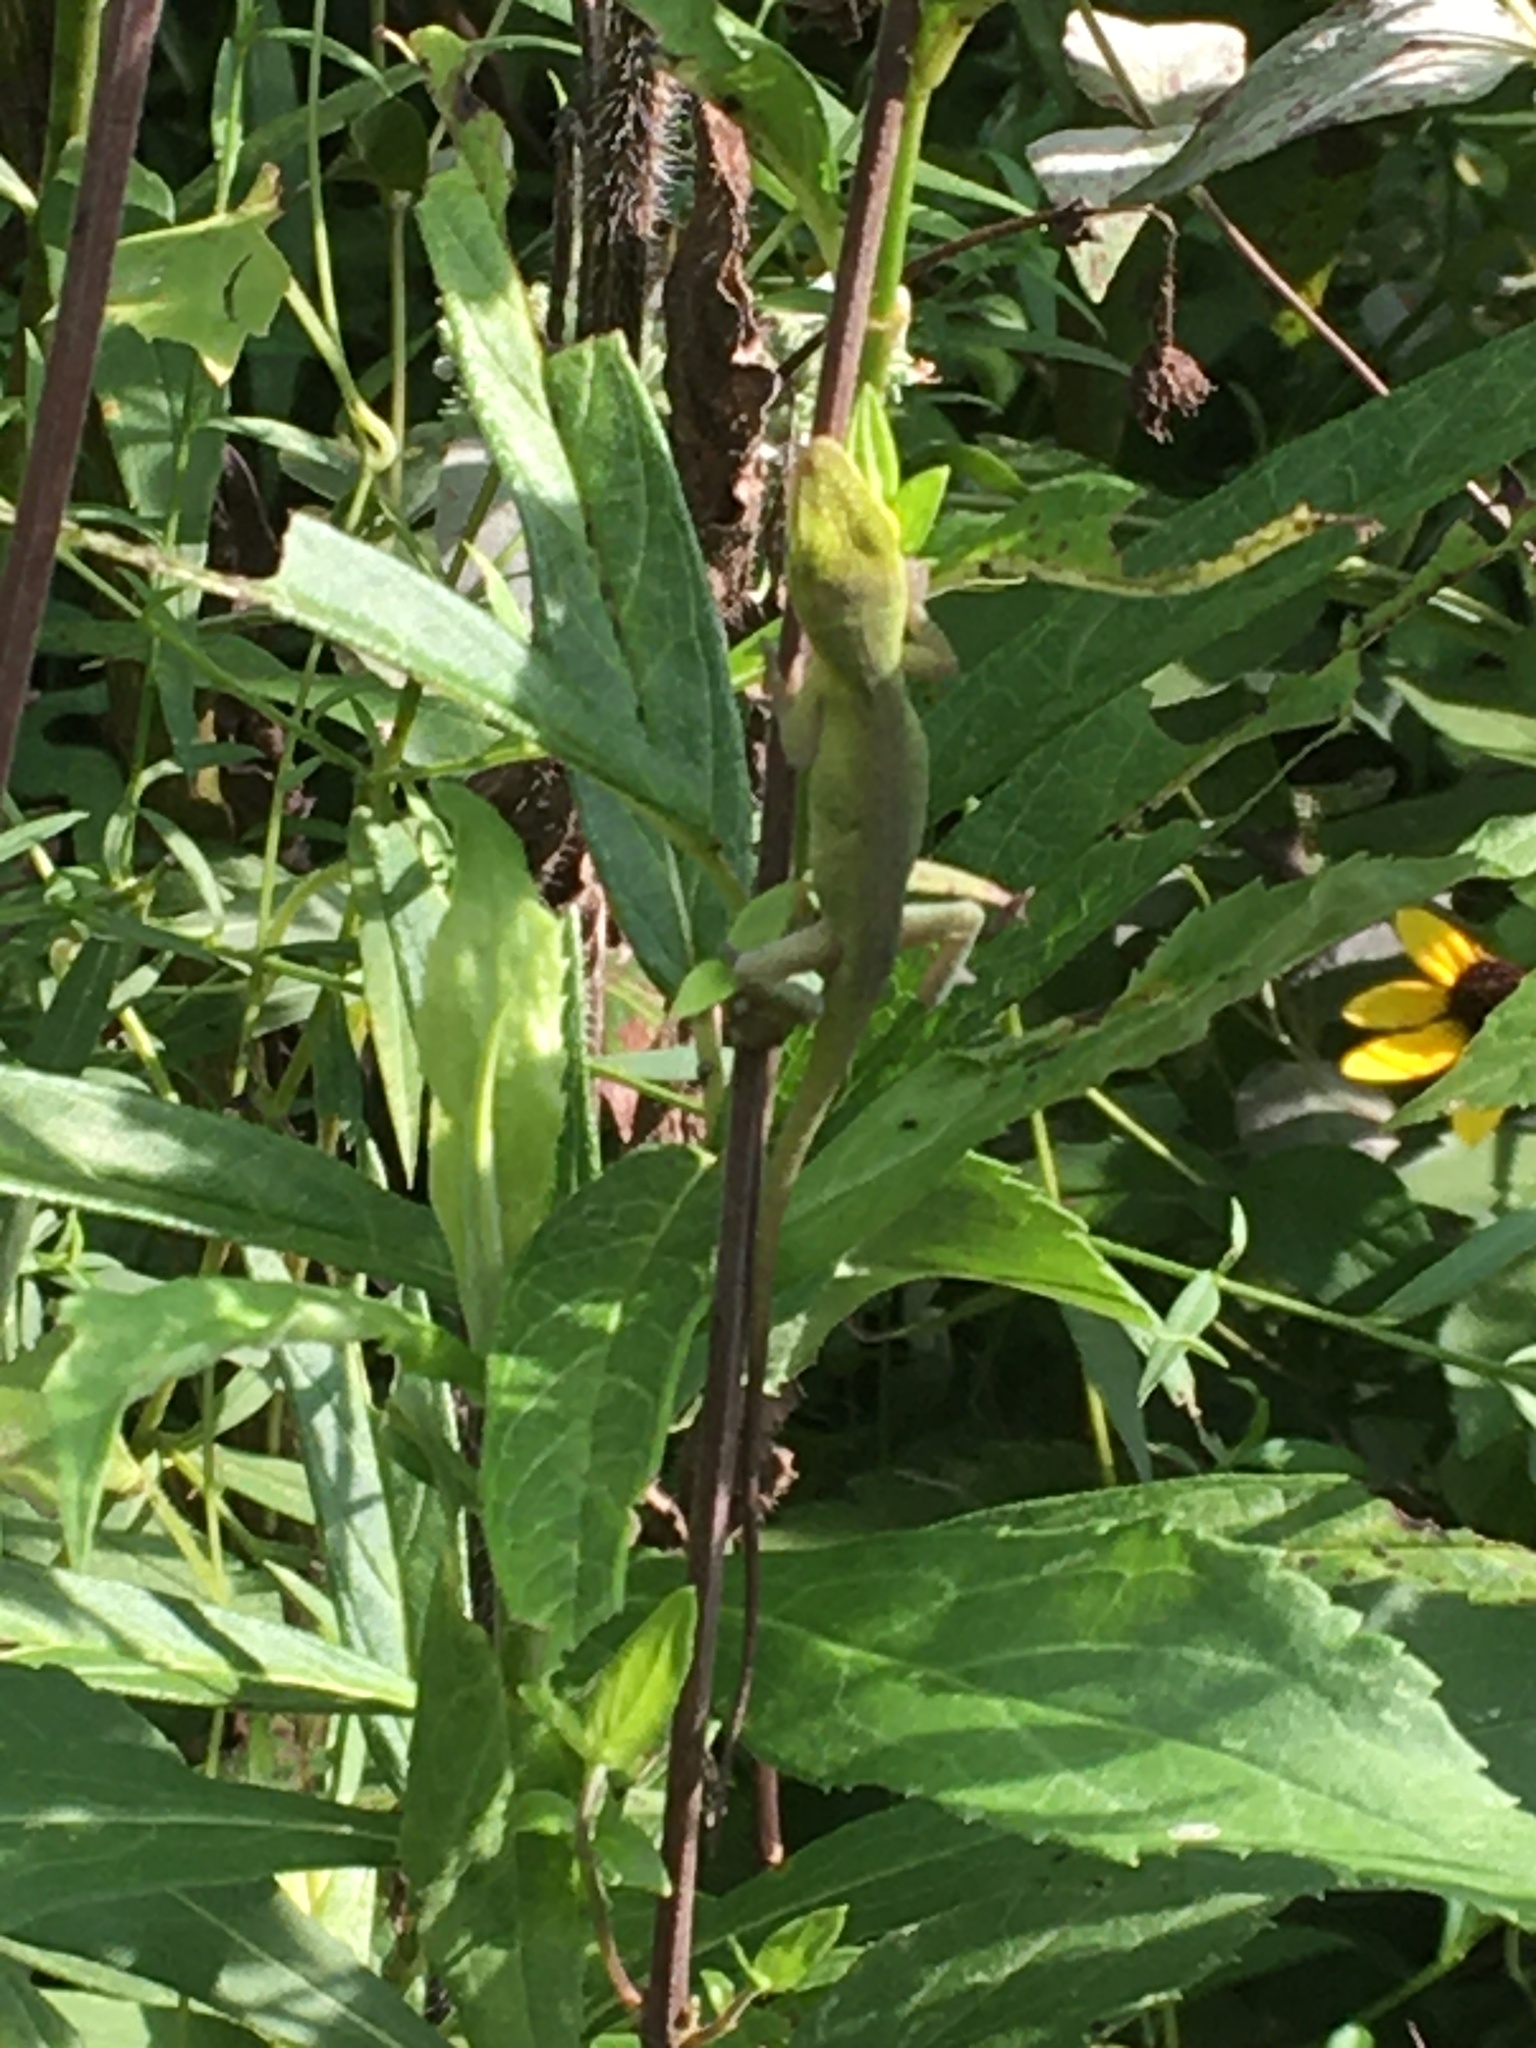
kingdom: Animalia
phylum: Chordata
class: Squamata
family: Dactyloidae
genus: Anolis
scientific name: Anolis carolinensis
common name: Green anole
